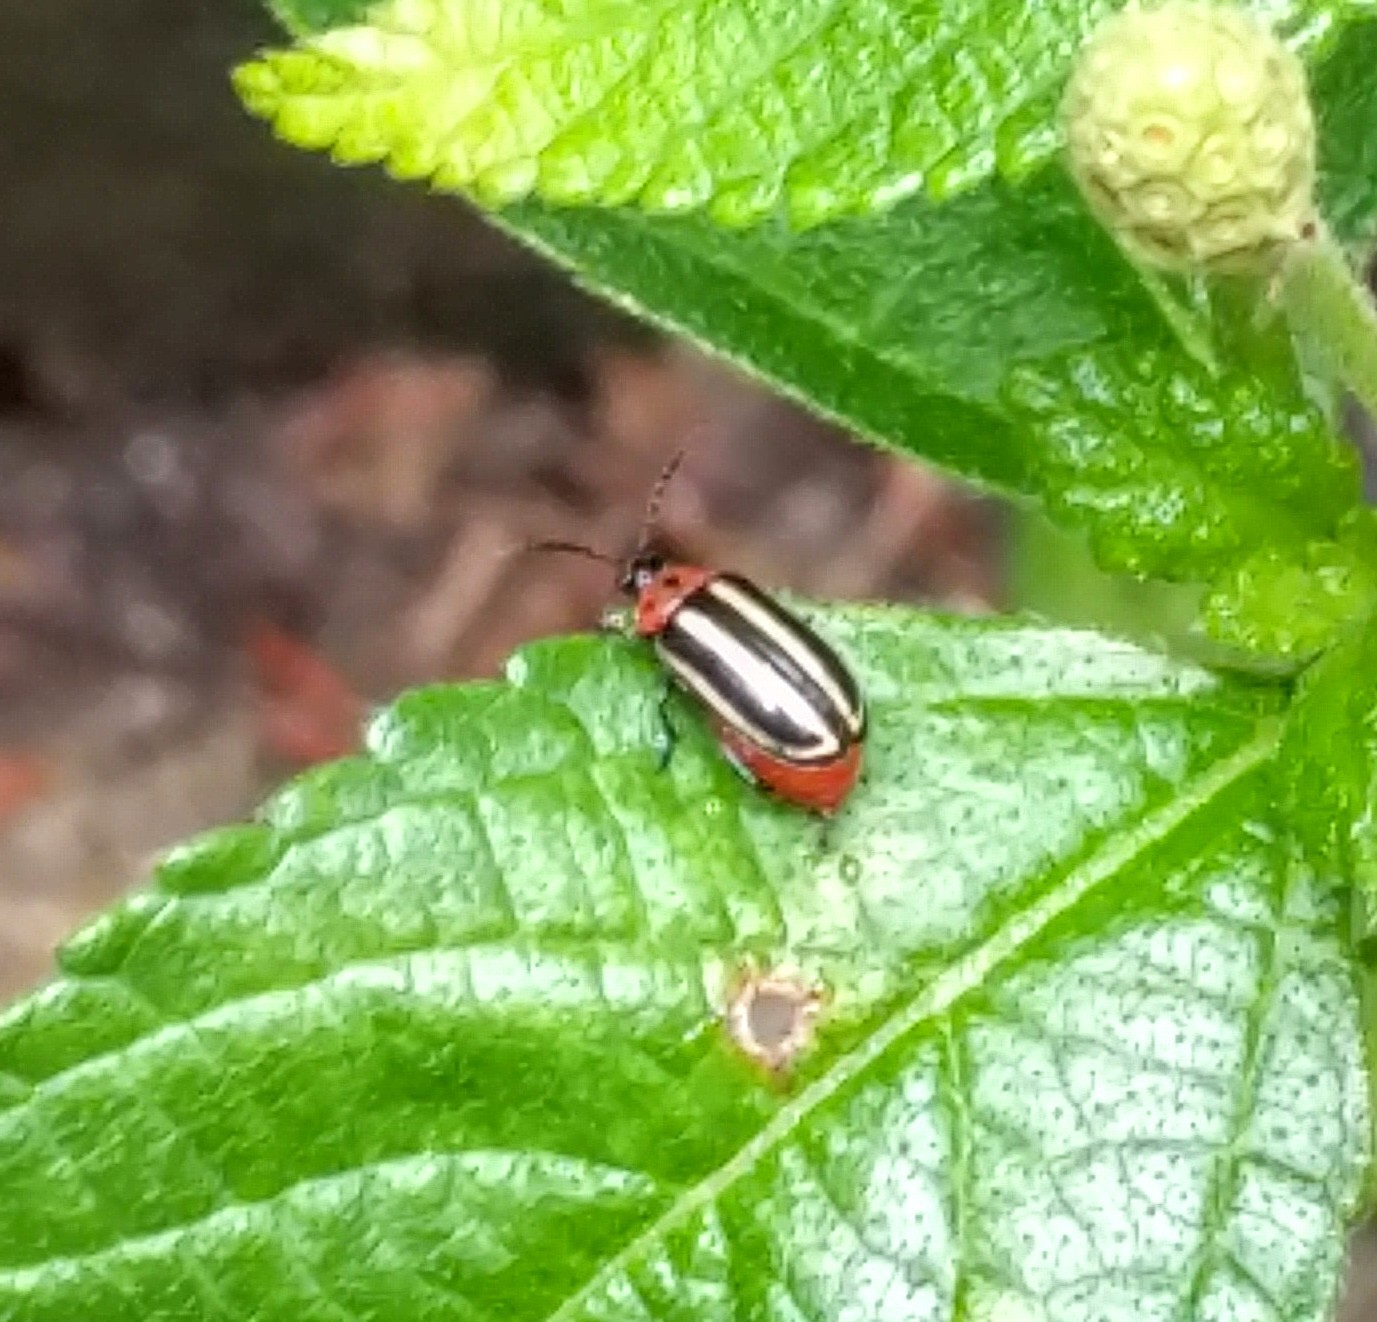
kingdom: Animalia
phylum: Arthropoda
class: Insecta
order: Coleoptera
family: Chrysomelidae
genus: Disonycha
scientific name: Disonycha glabrata
